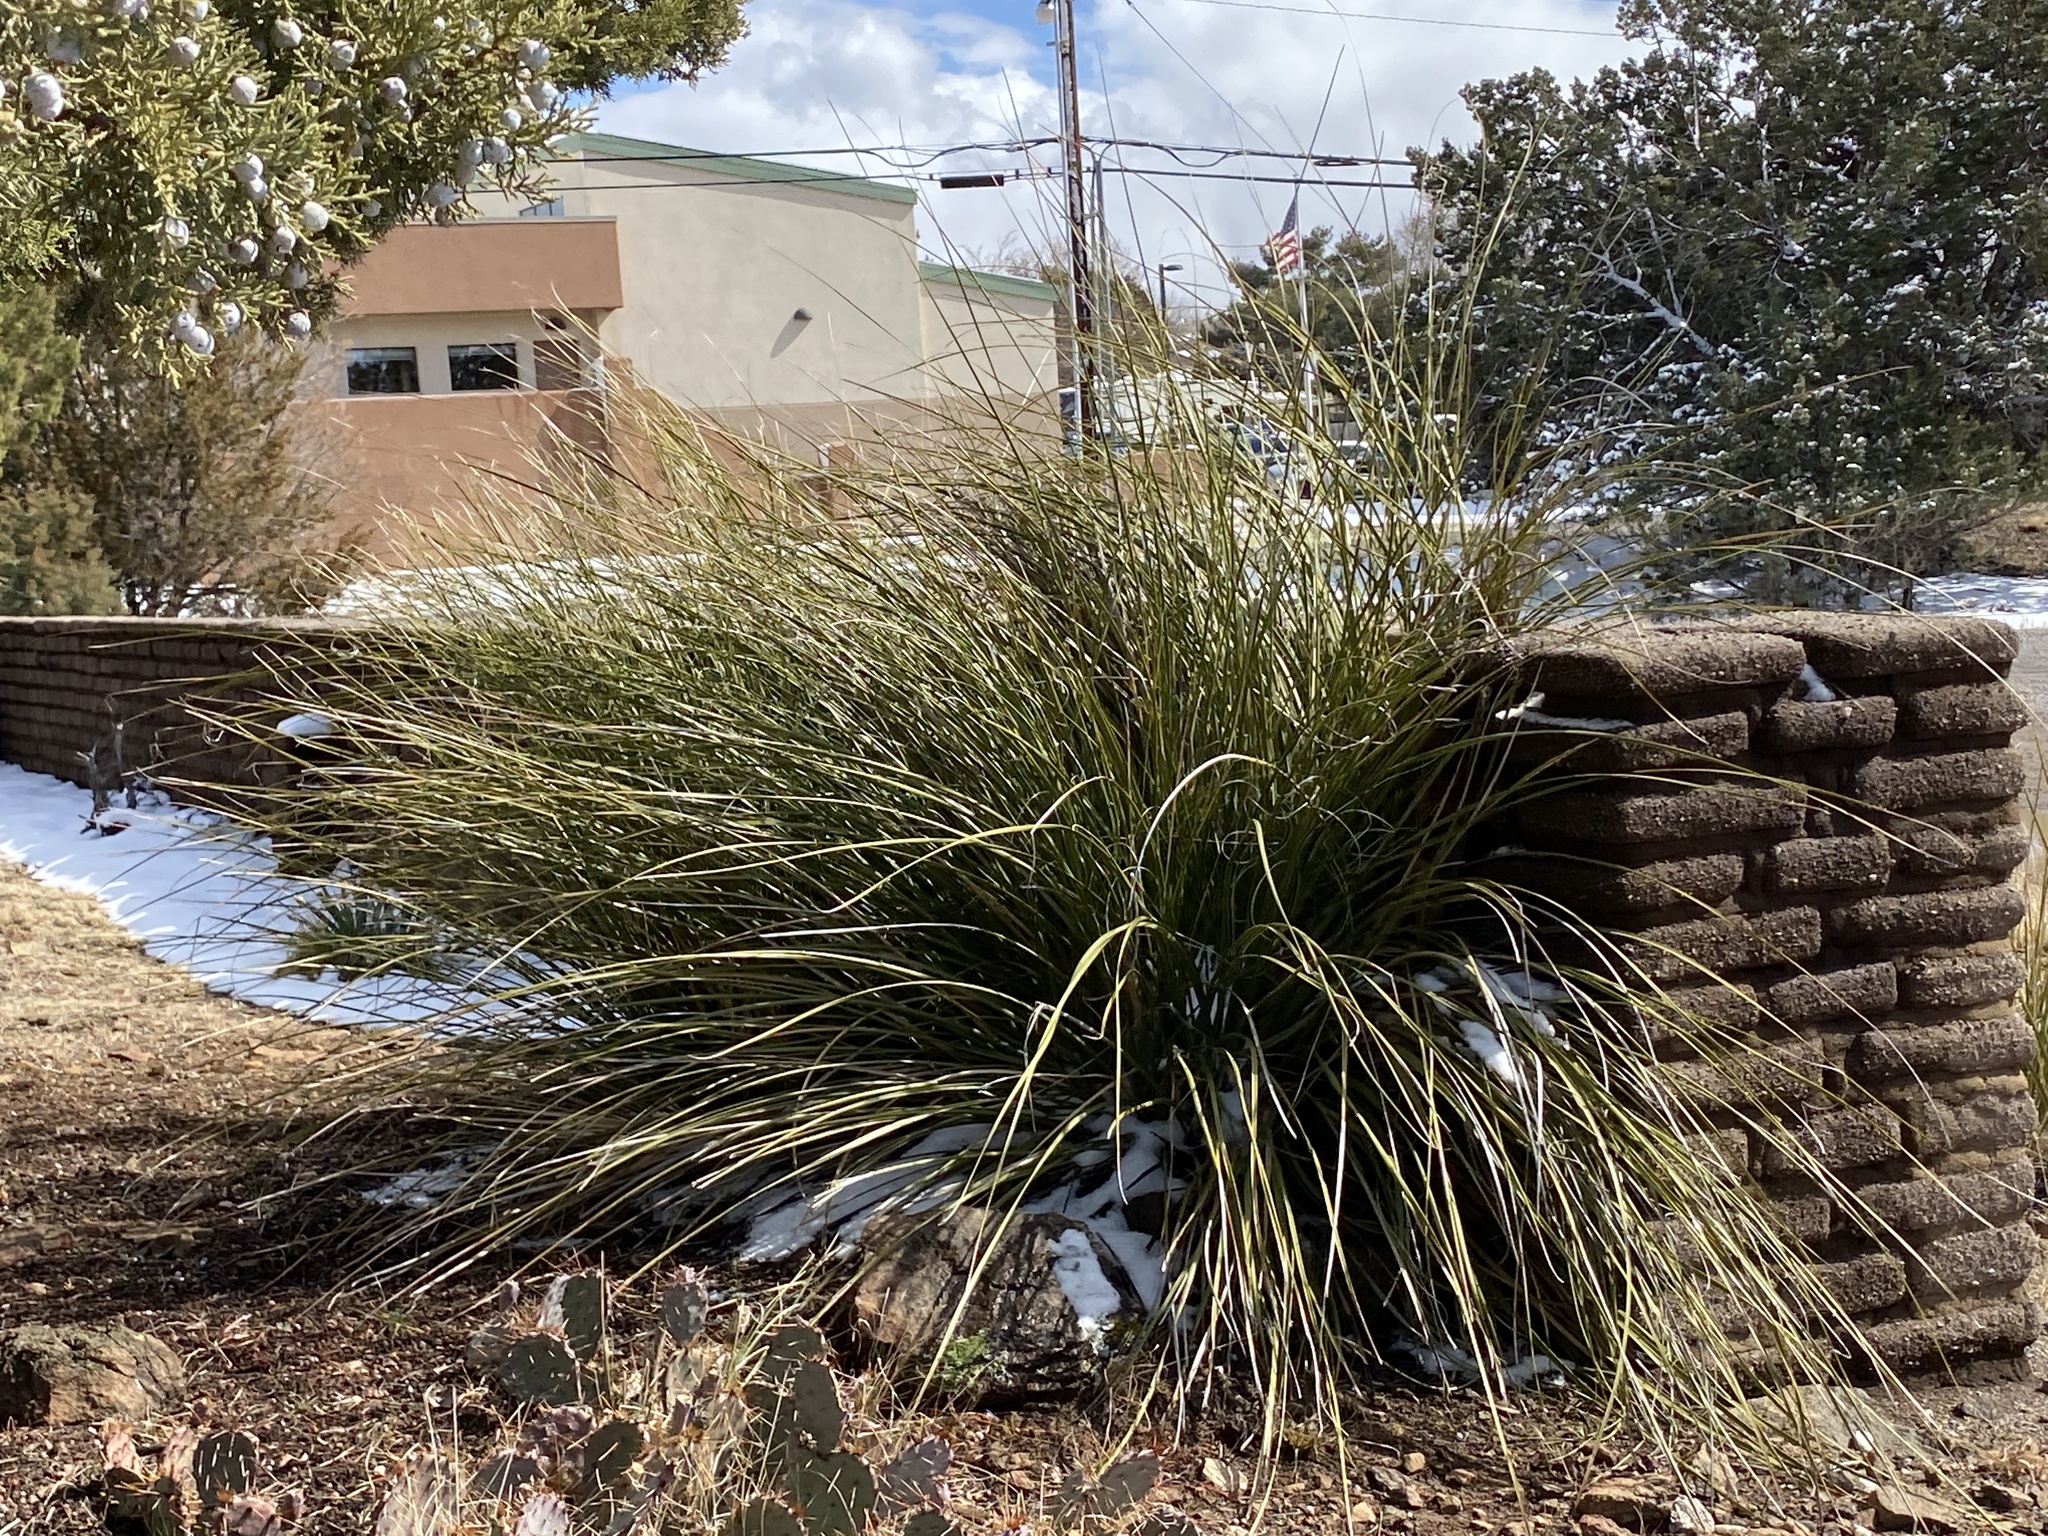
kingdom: Plantae
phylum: Tracheophyta
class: Liliopsida
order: Asparagales
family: Asparagaceae
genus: Nolina
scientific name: Nolina microcarpa
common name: Bear-grass
